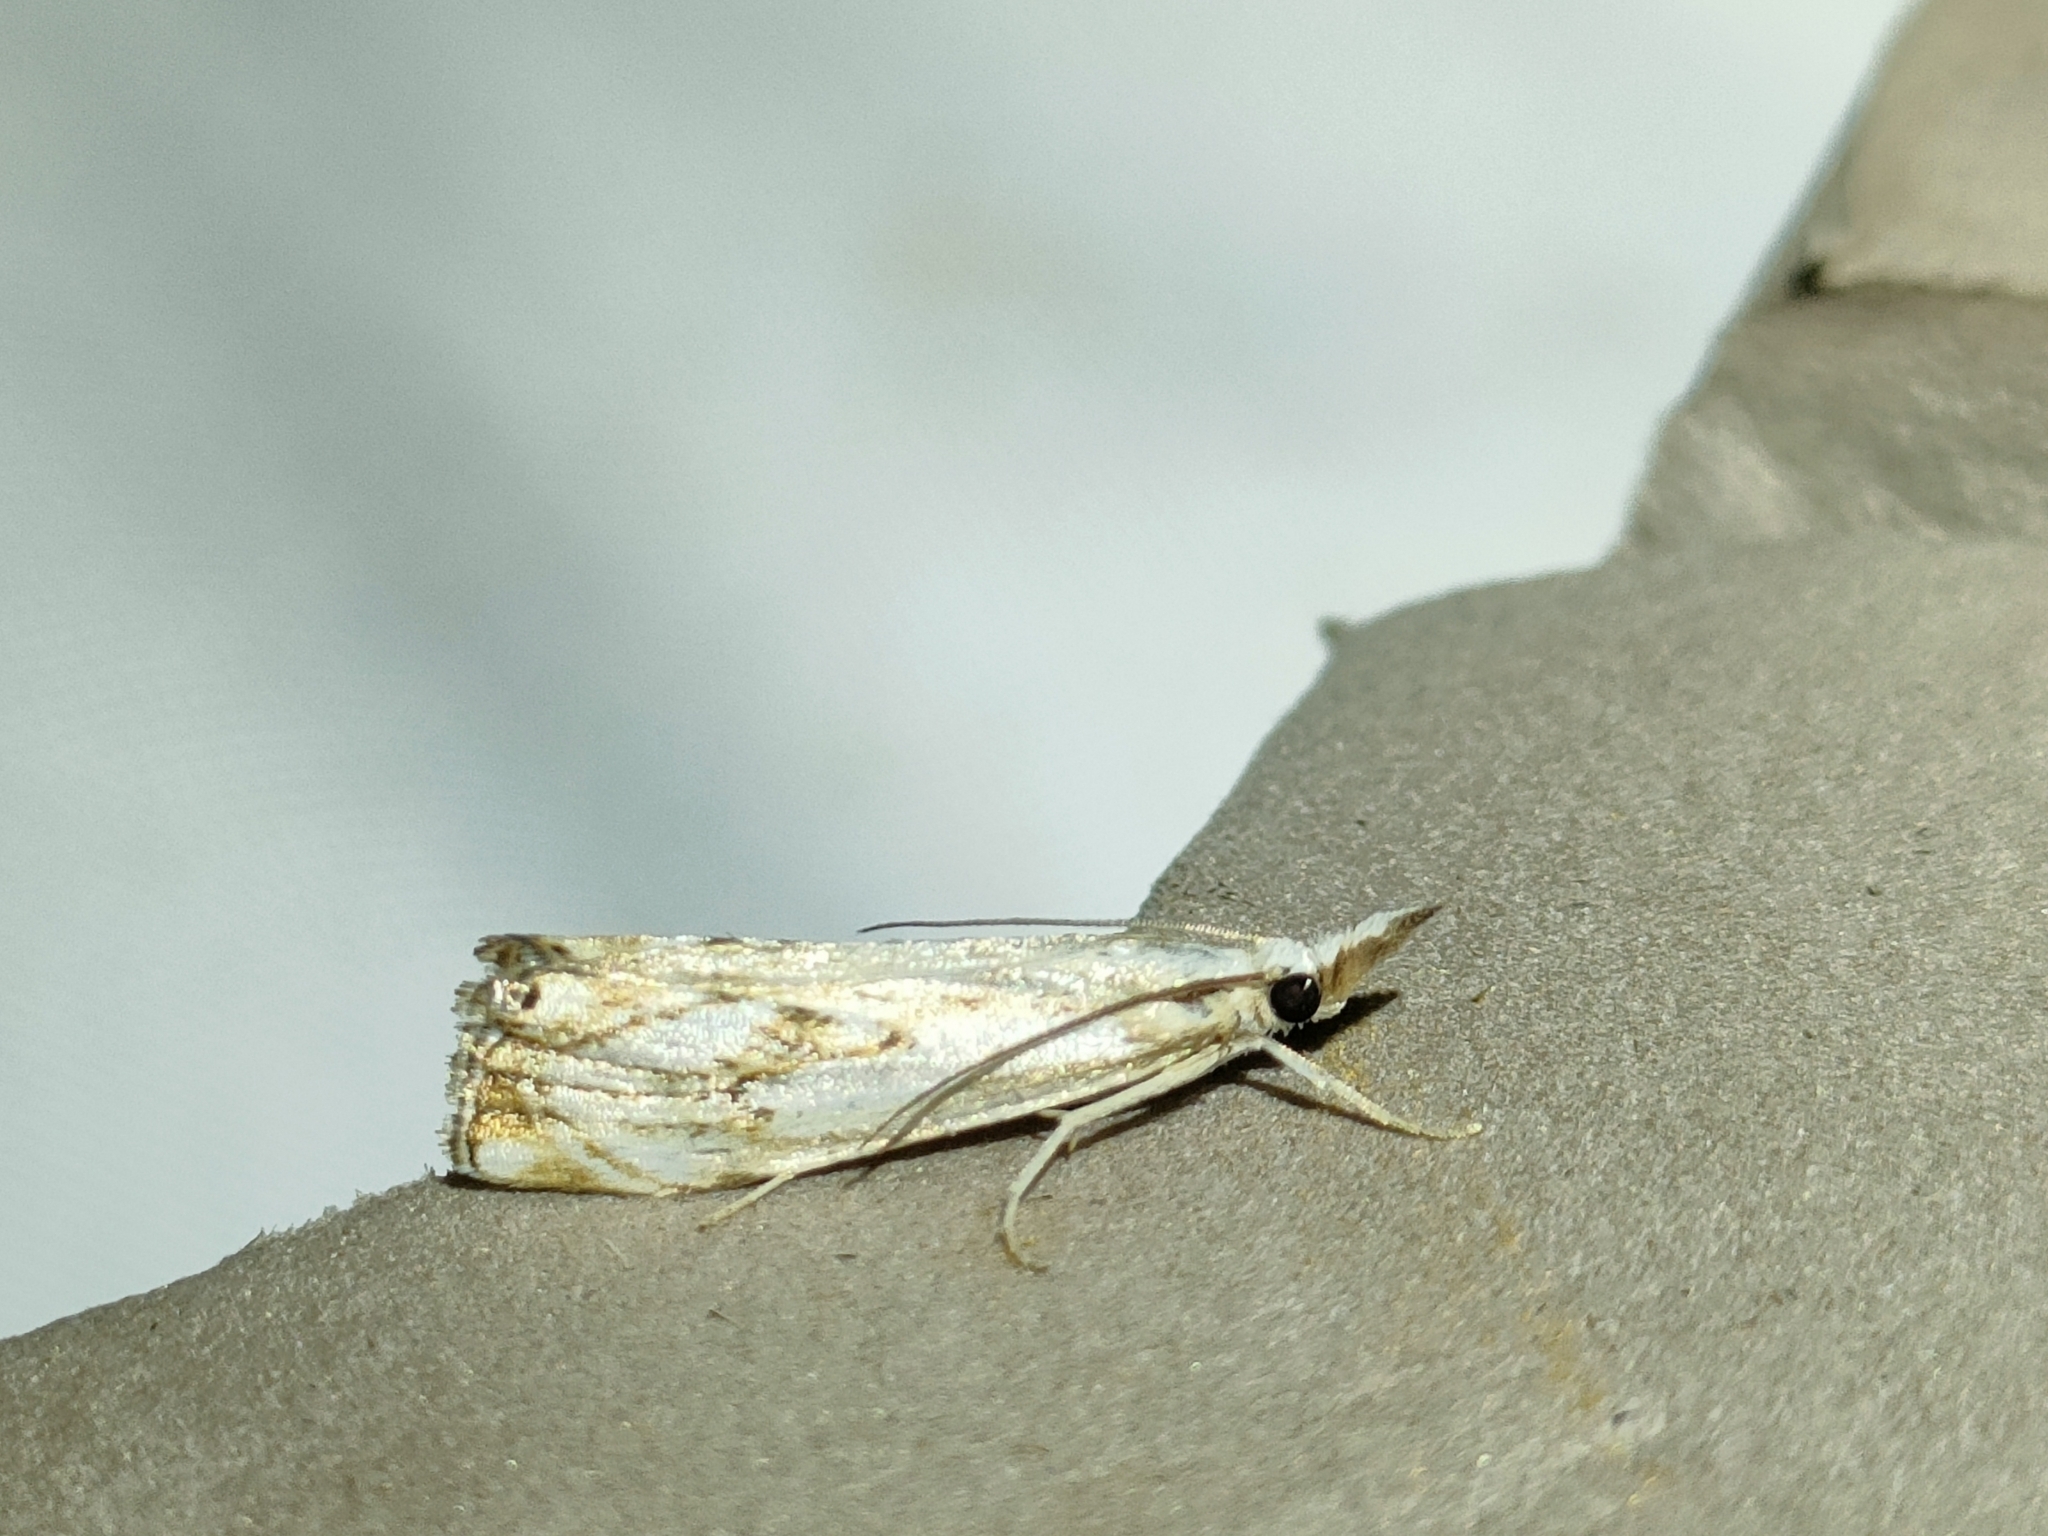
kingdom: Animalia
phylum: Arthropoda
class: Insecta
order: Lepidoptera
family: Crambidae
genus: Catoptria
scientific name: Catoptria falsella
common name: Chequered grass-veneer
